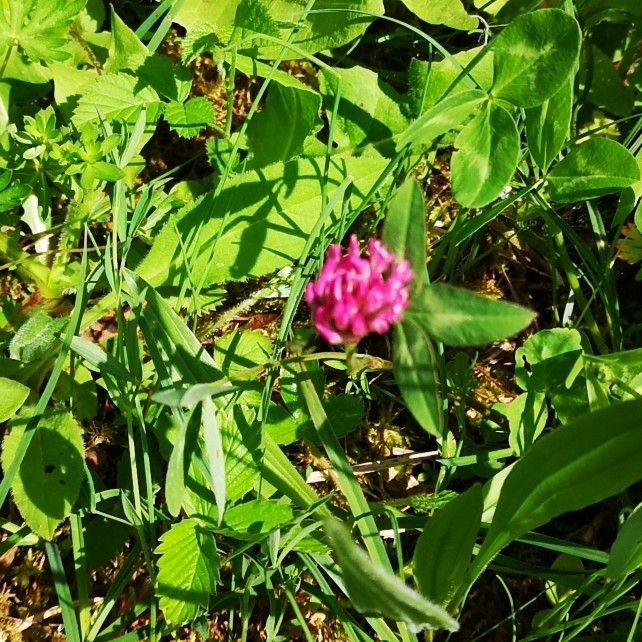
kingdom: Plantae
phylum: Tracheophyta
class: Magnoliopsida
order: Fabales
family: Fabaceae
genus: Trifolium
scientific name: Trifolium pratense
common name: Red clover
